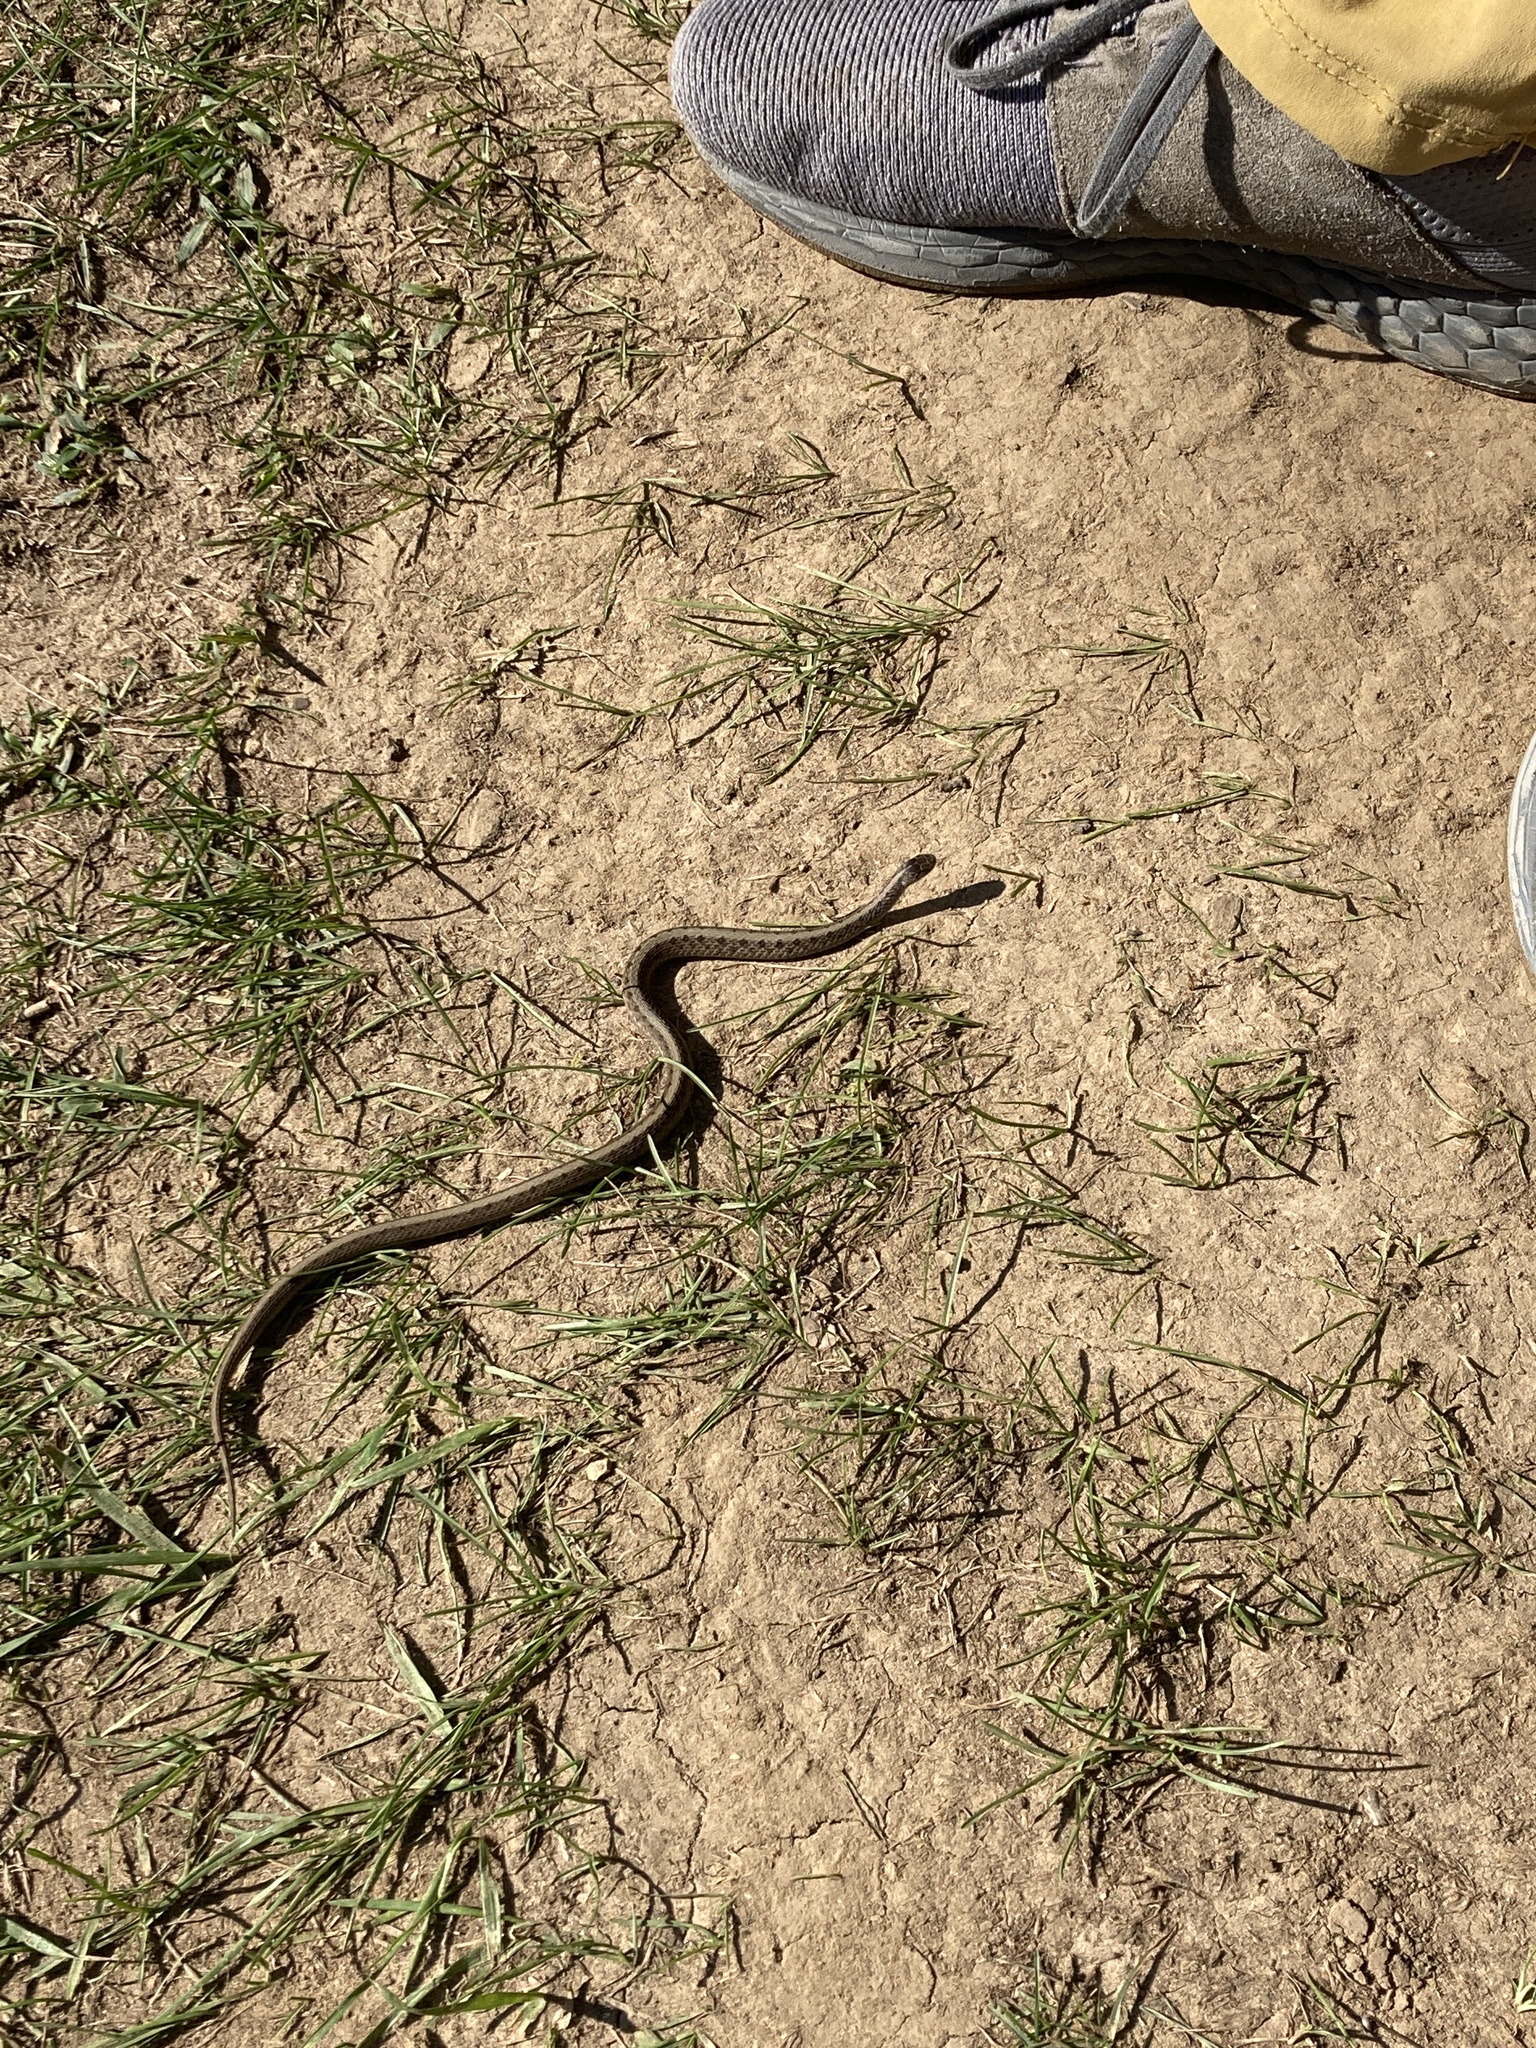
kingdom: Animalia
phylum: Chordata
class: Squamata
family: Colubridae
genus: Storeria
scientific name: Storeria dekayi
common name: (dekay’s) brown snake
